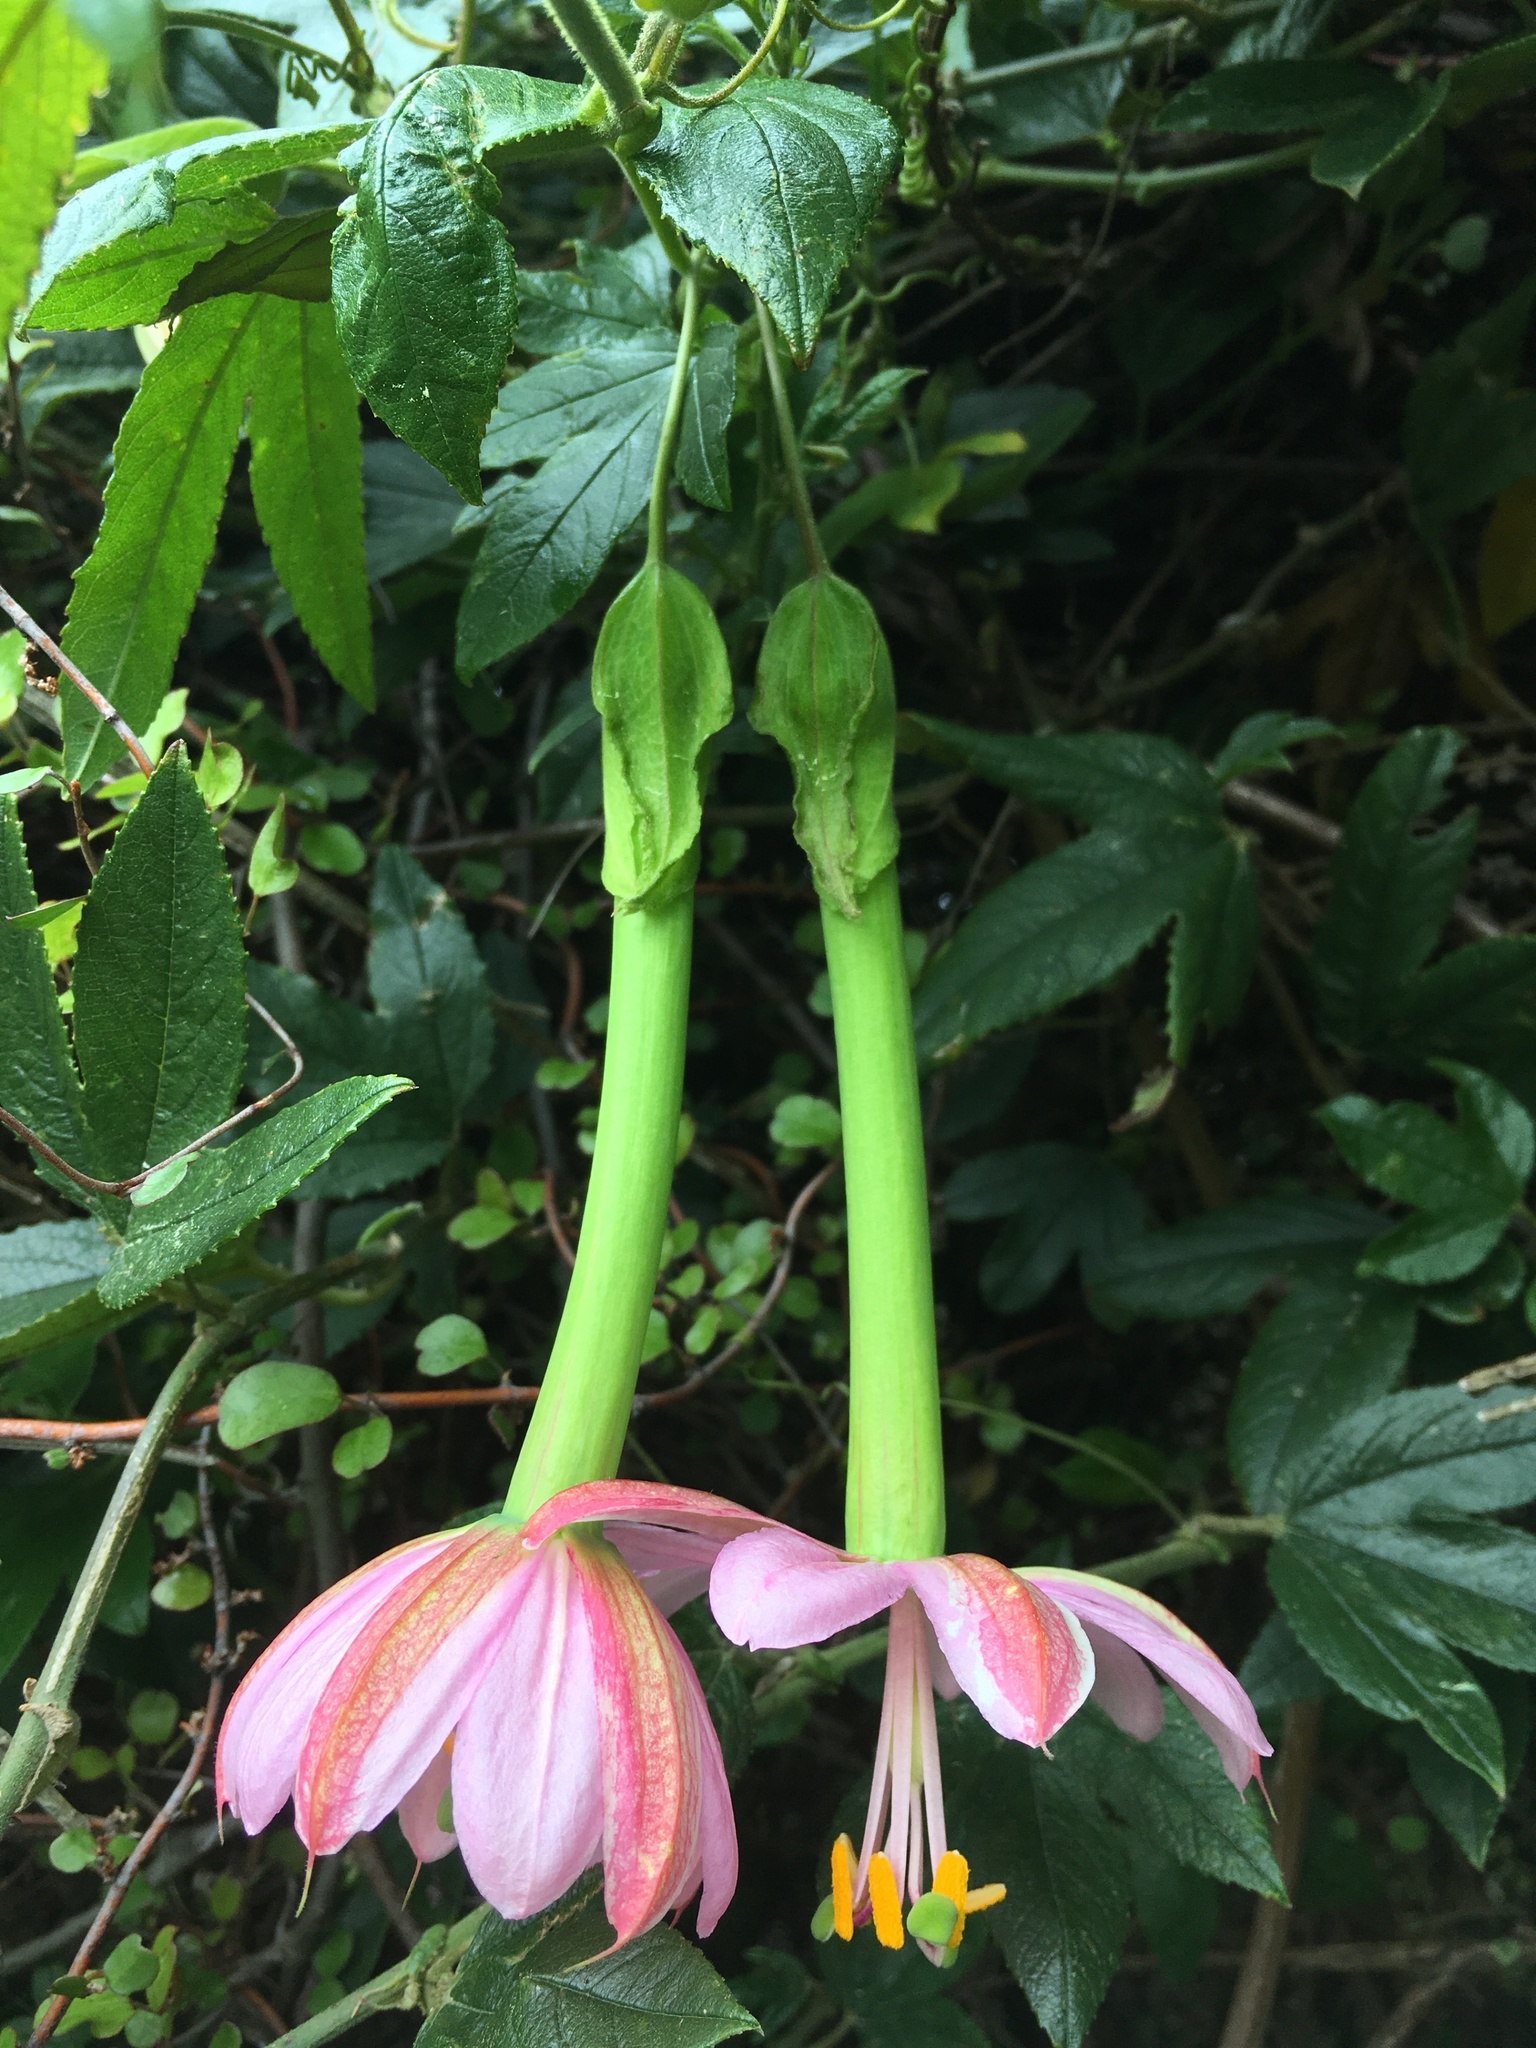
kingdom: Plantae
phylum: Tracheophyta
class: Magnoliopsida
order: Malpighiales
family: Passifloraceae
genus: Passiflora
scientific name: Passiflora tripartita
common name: Banana poka
